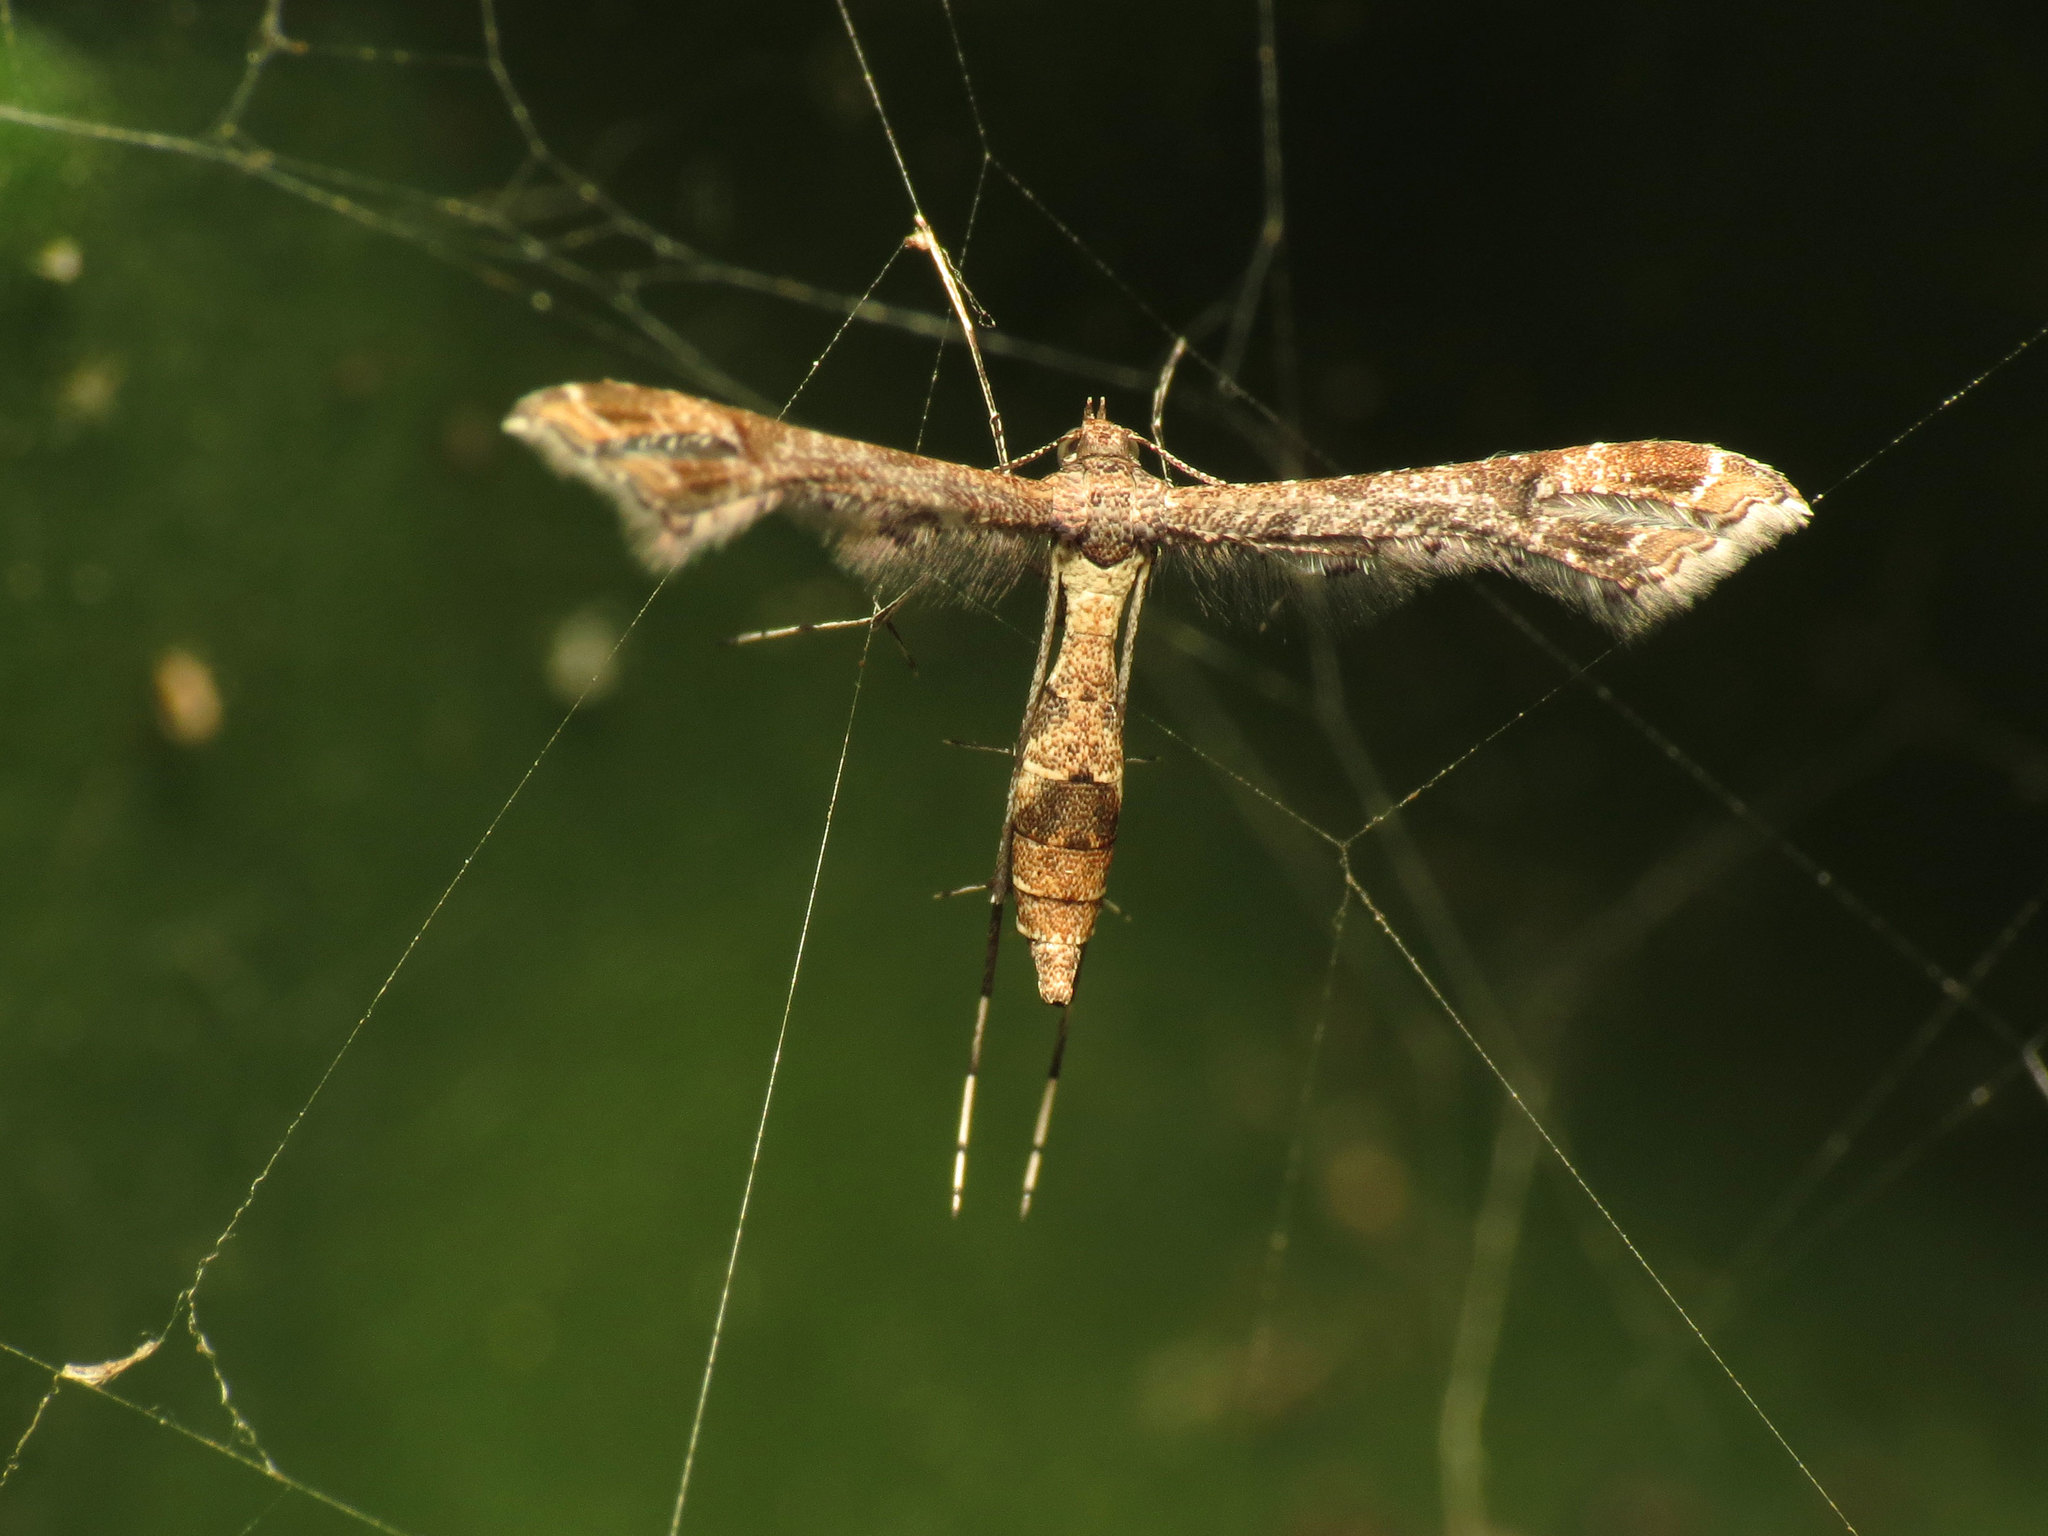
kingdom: Animalia
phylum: Arthropoda
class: Insecta
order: Lepidoptera
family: Pterophoridae
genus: Lantanophaga
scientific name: Lantanophaga pusillidactylus
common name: Moth
